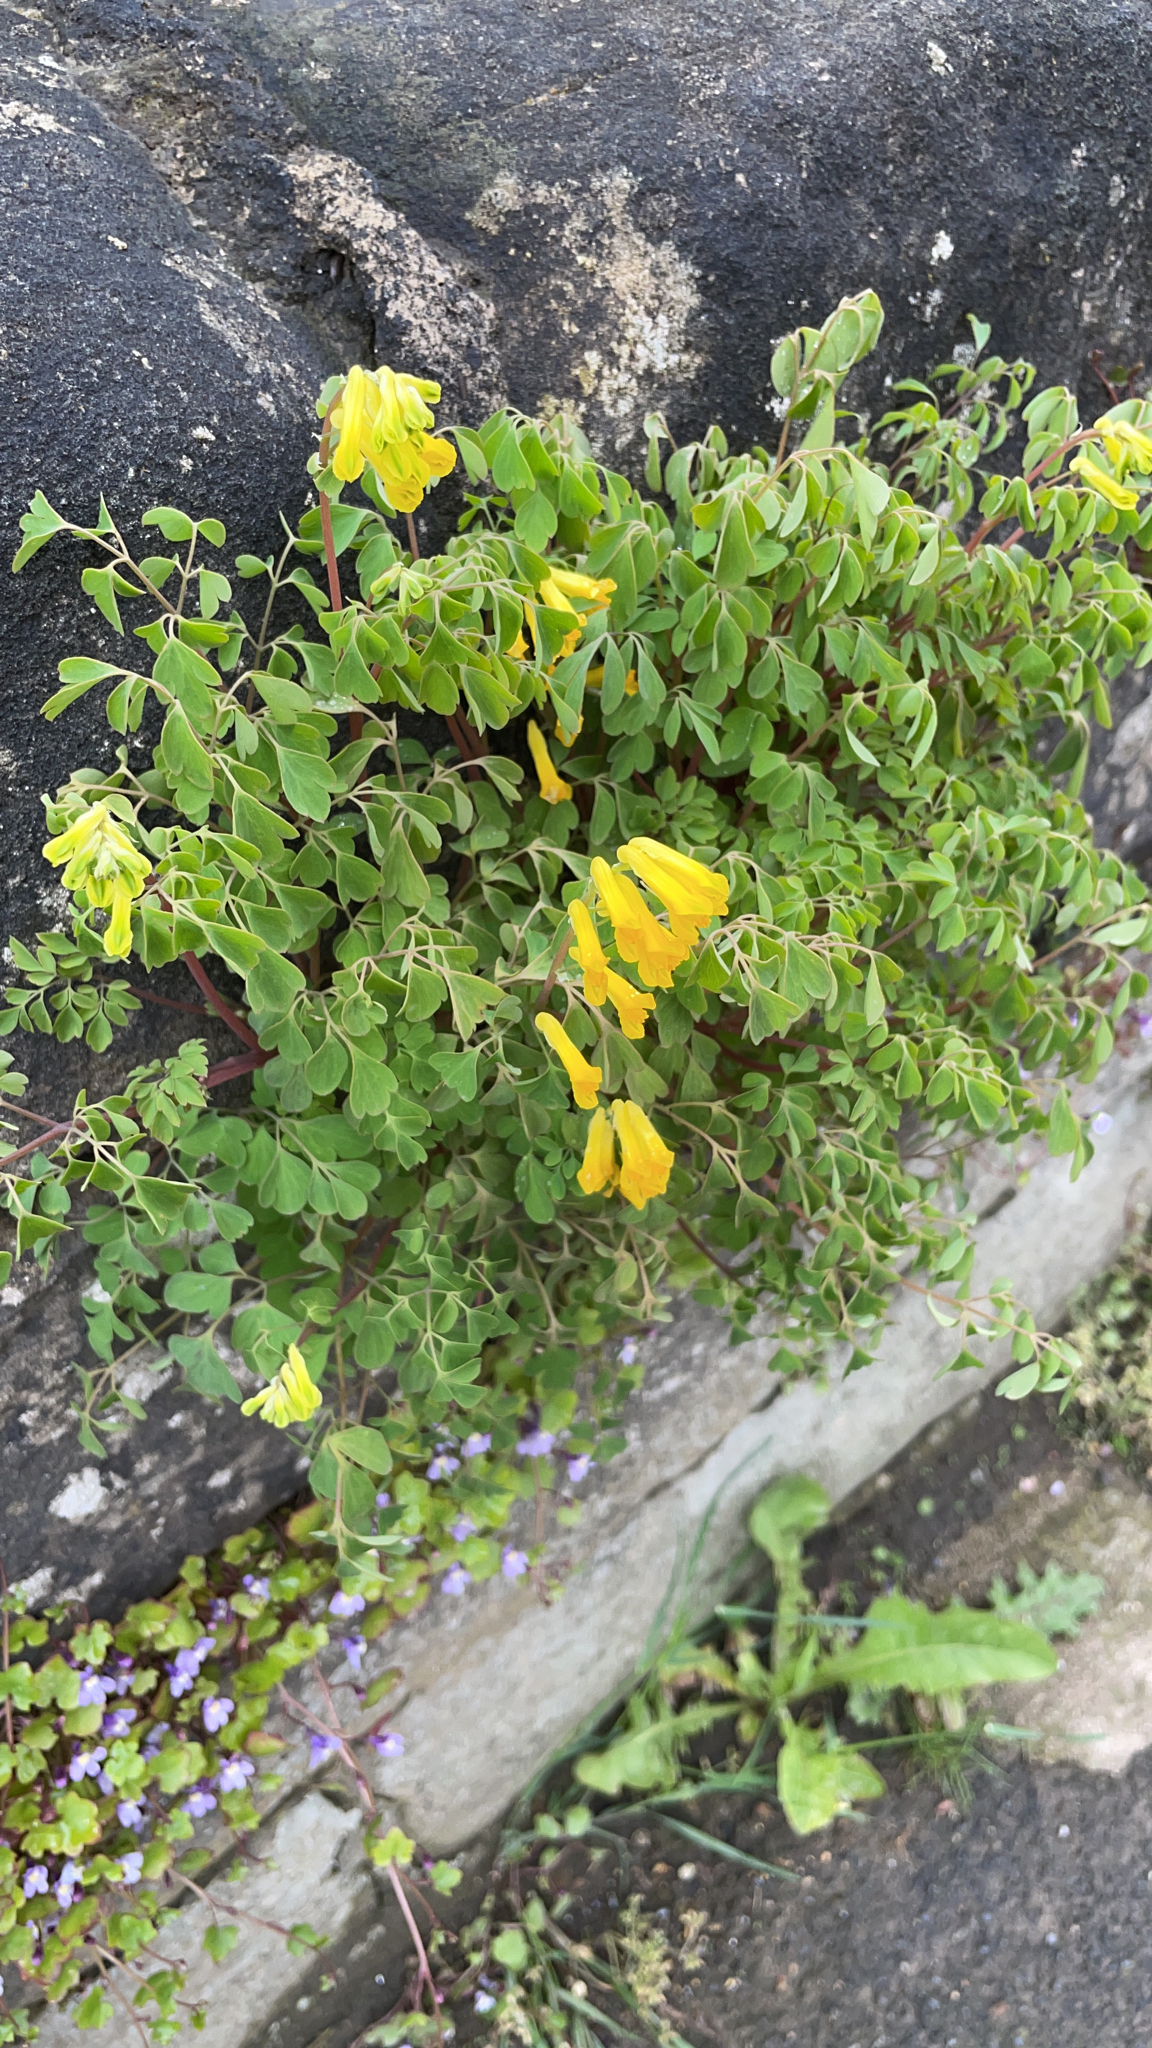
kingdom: Plantae
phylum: Tracheophyta
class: Magnoliopsida
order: Ranunculales
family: Papaveraceae
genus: Pseudofumaria
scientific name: Pseudofumaria lutea
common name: Yellow corydalis
